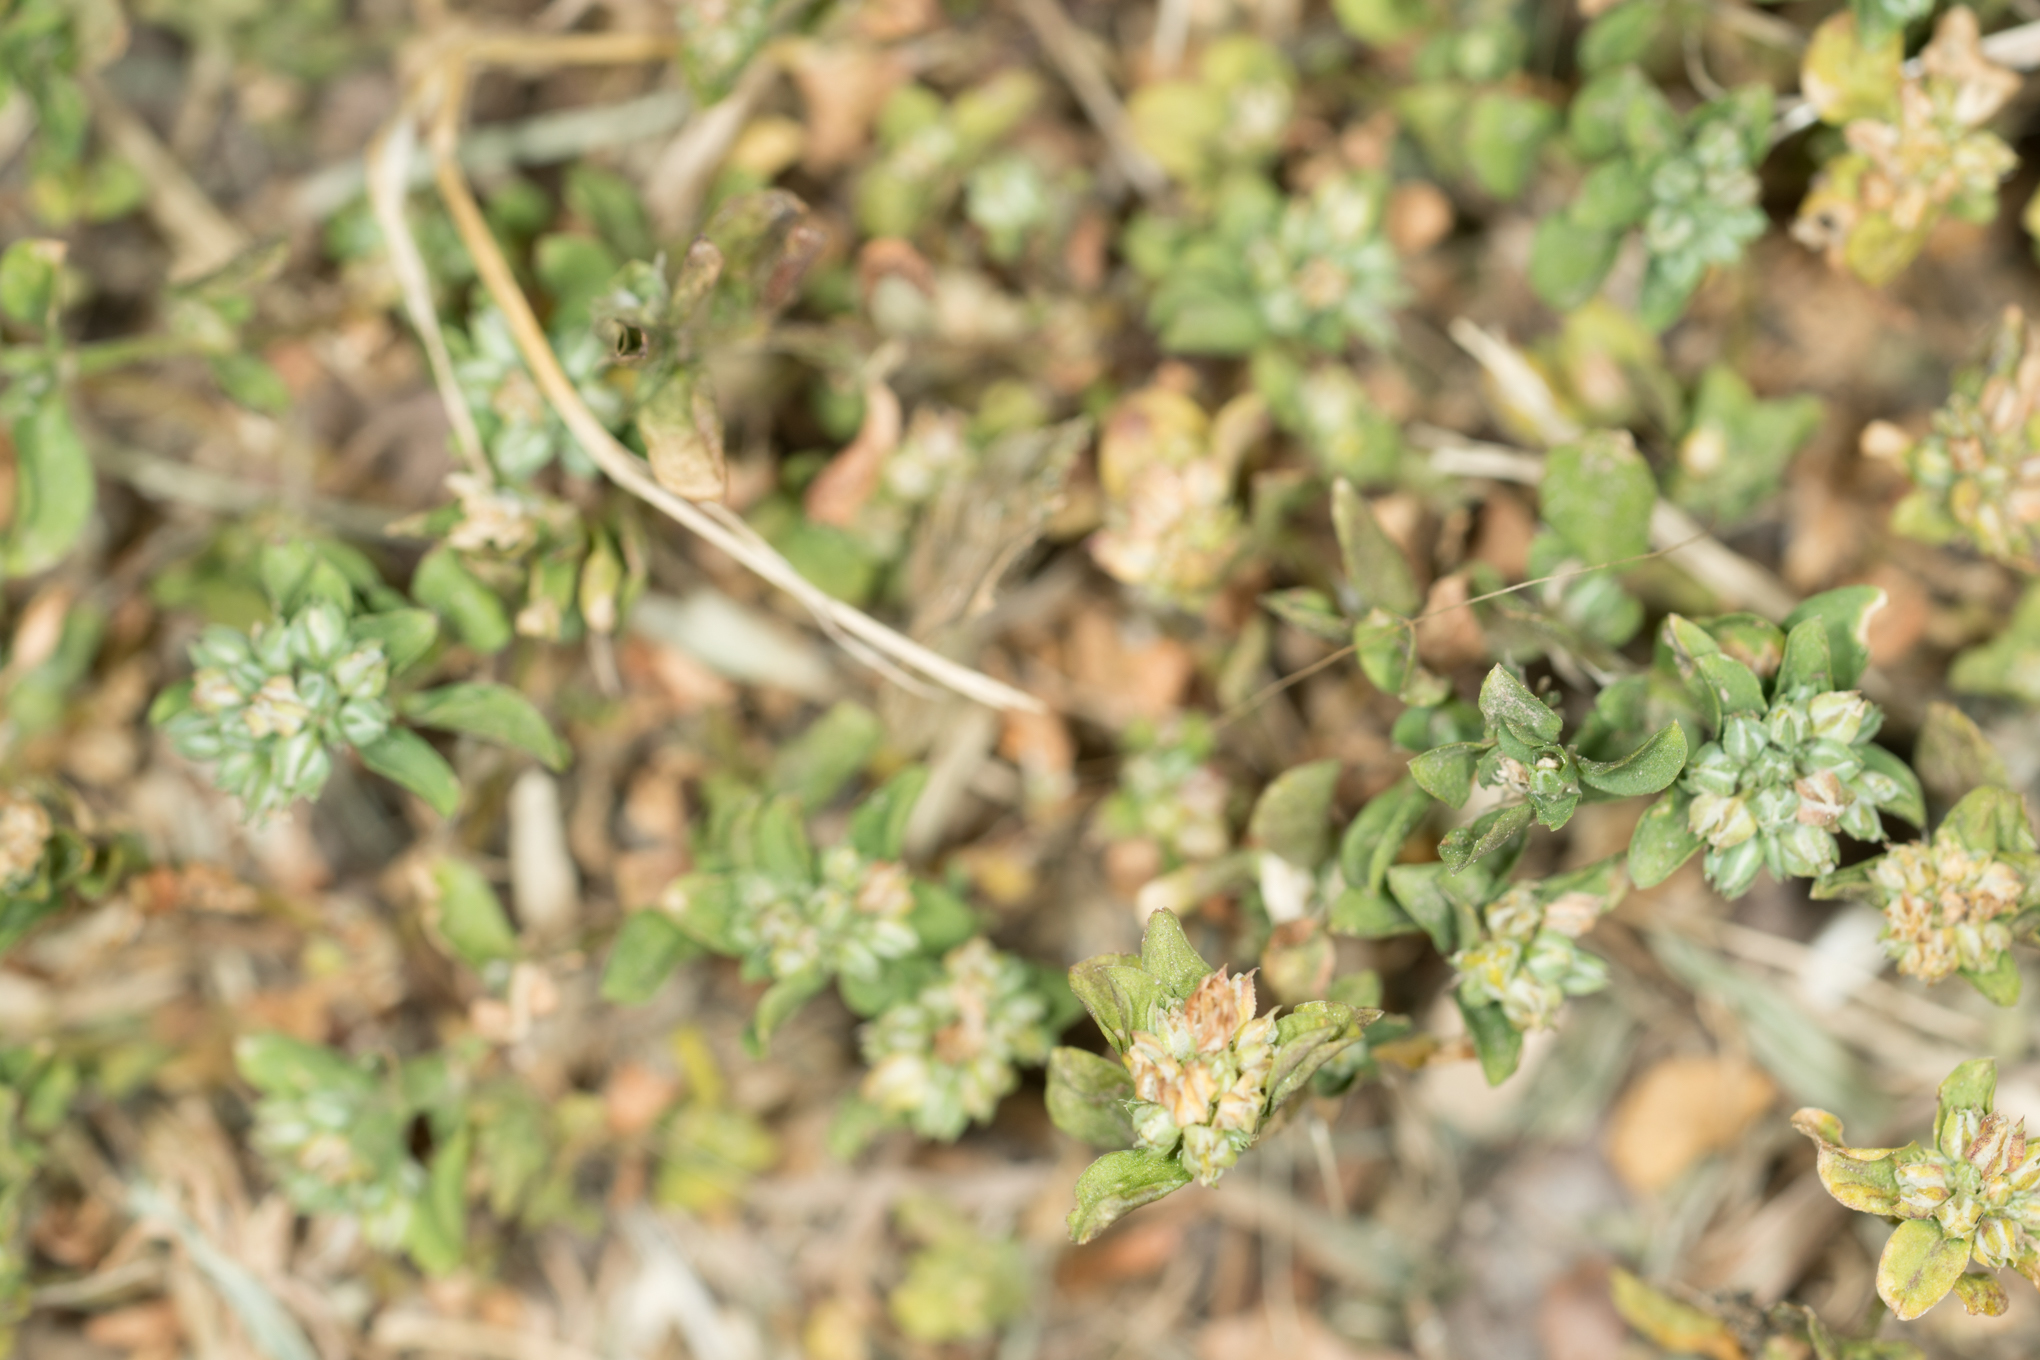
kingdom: Plantae
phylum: Tracheophyta
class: Magnoliopsida
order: Caryophyllales
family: Caryophyllaceae
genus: Polycarpon
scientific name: Polycarpon tetraphyllum
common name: Four-leaved all-seed
